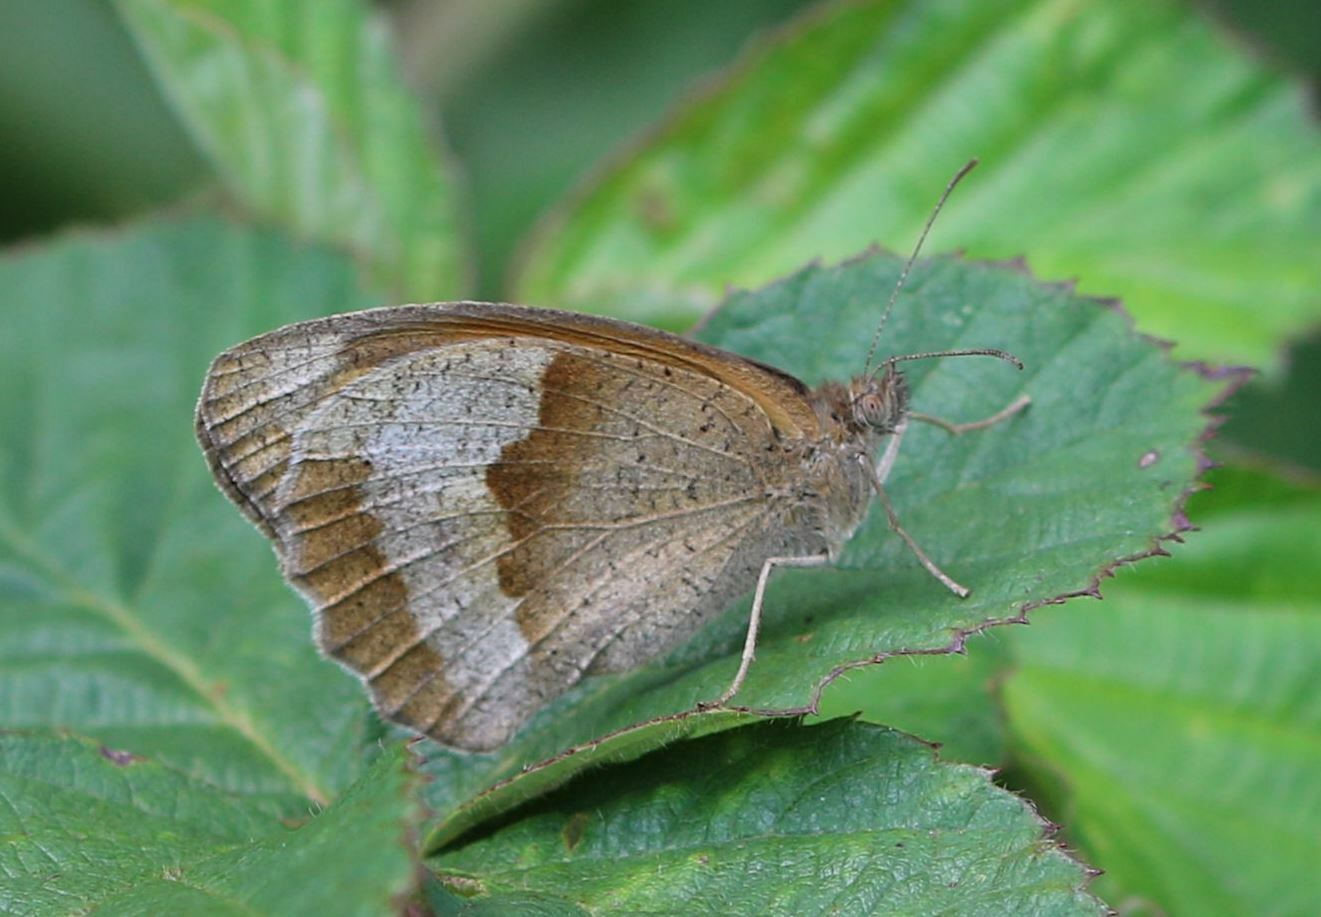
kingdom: Animalia
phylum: Arthropoda
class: Insecta
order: Lepidoptera
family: Nymphalidae
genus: Maniola
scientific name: Maniola jurtina
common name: Meadow brown
